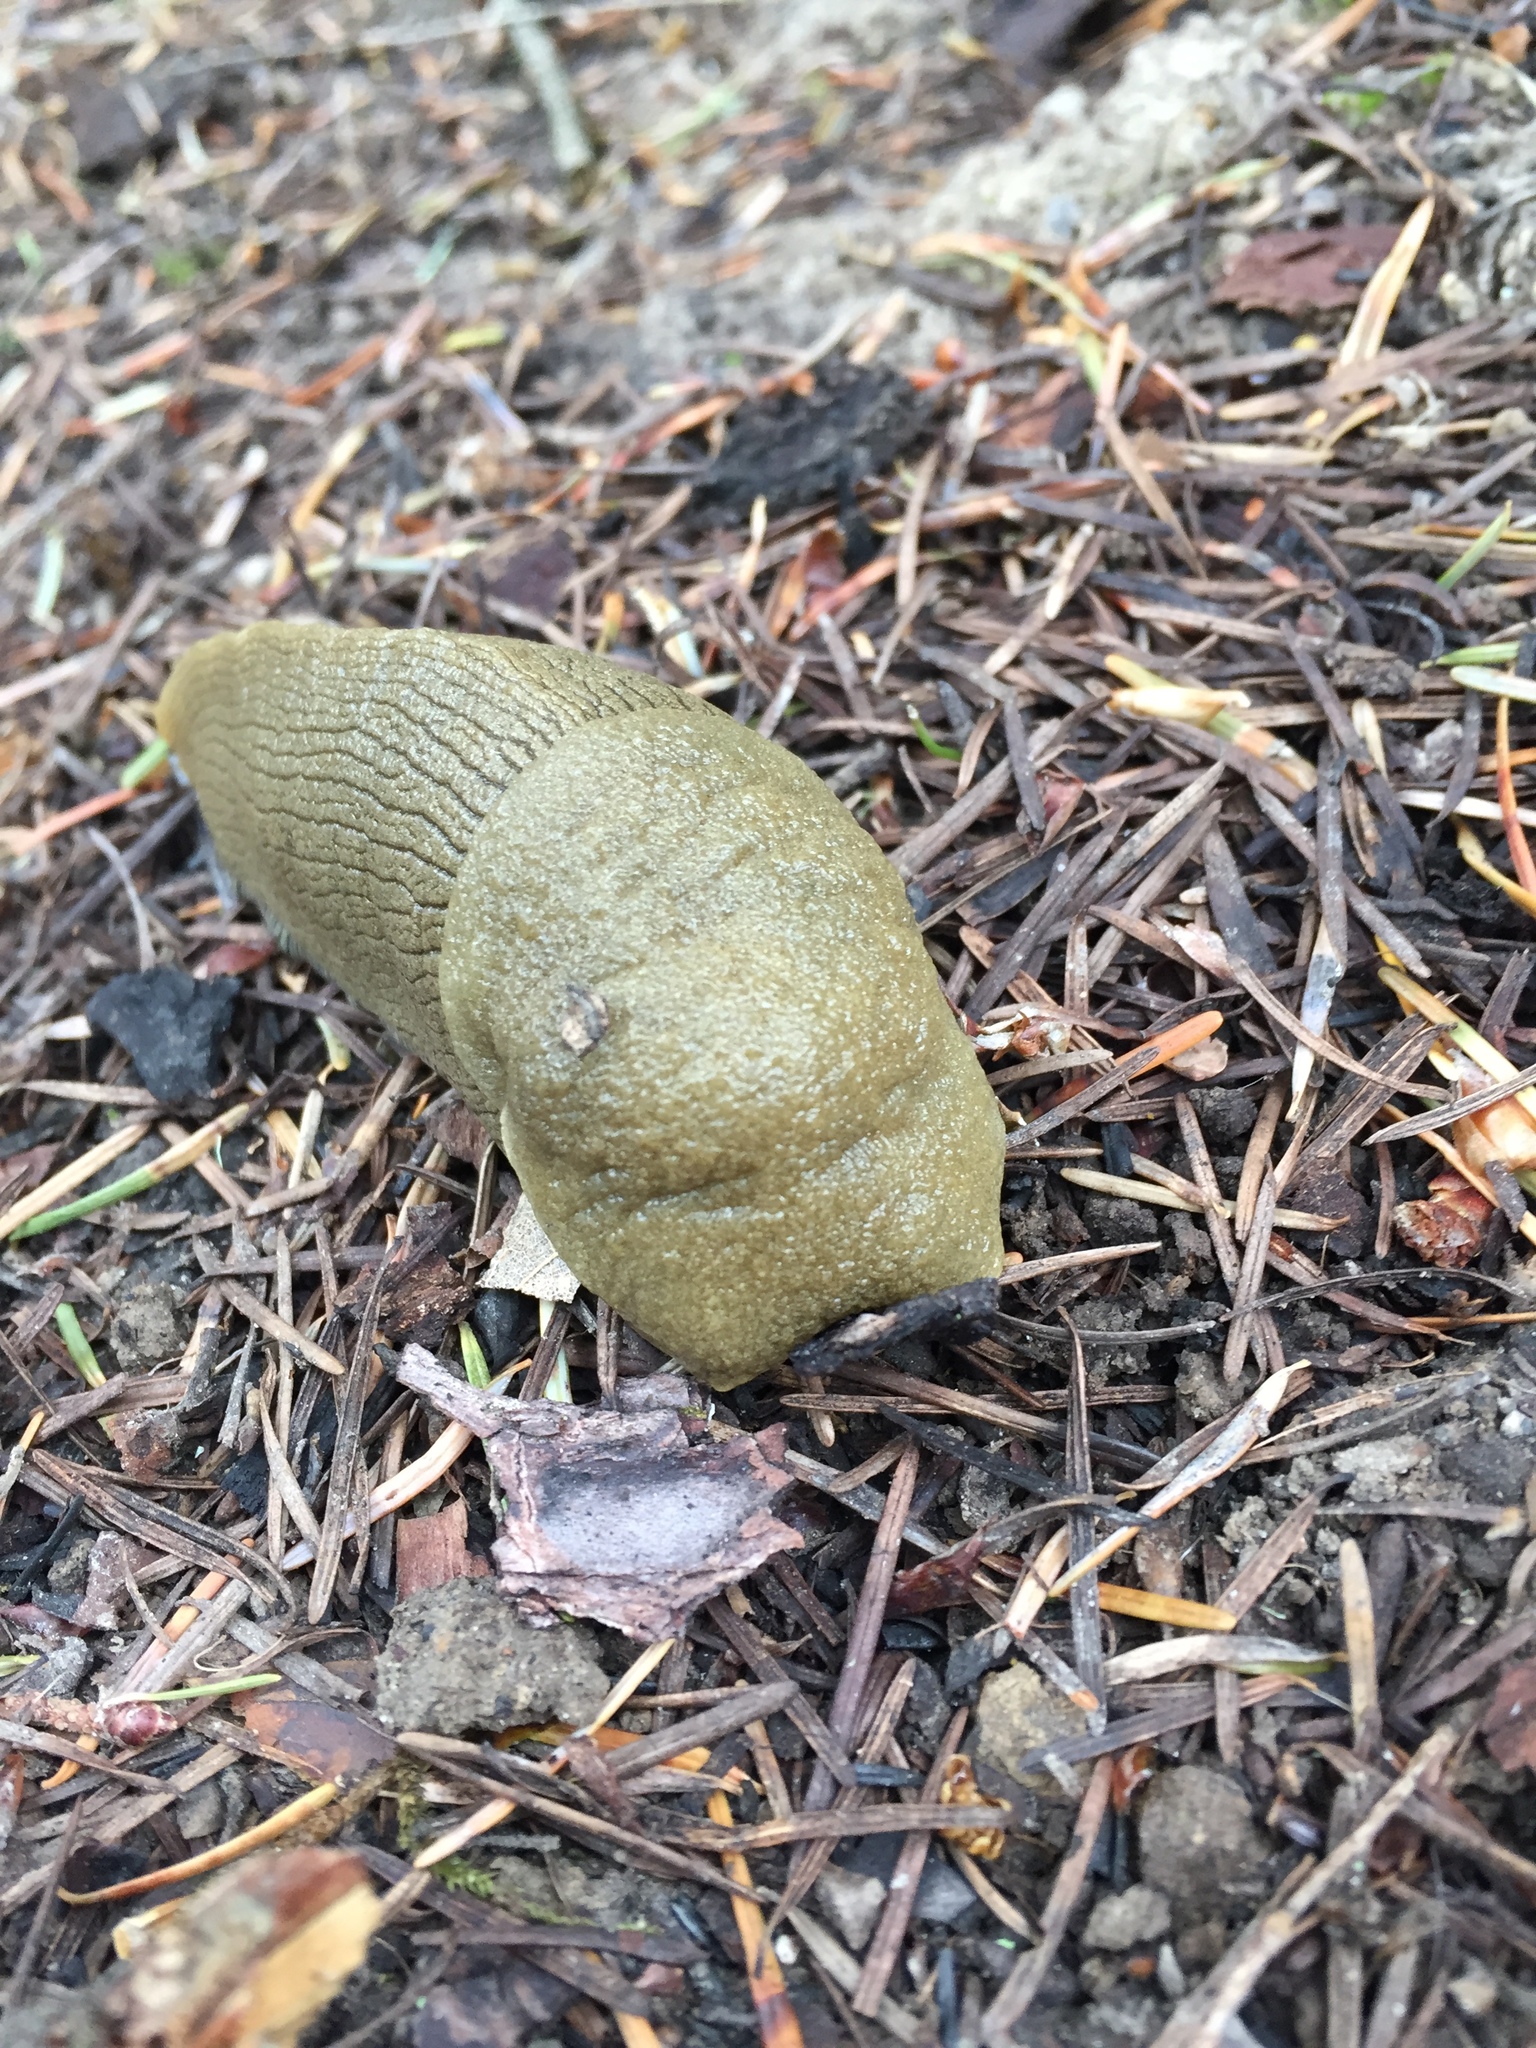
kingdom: Animalia
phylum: Mollusca
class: Gastropoda
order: Stylommatophora
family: Ariolimacidae
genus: Ariolimax
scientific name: Ariolimax buttoni
